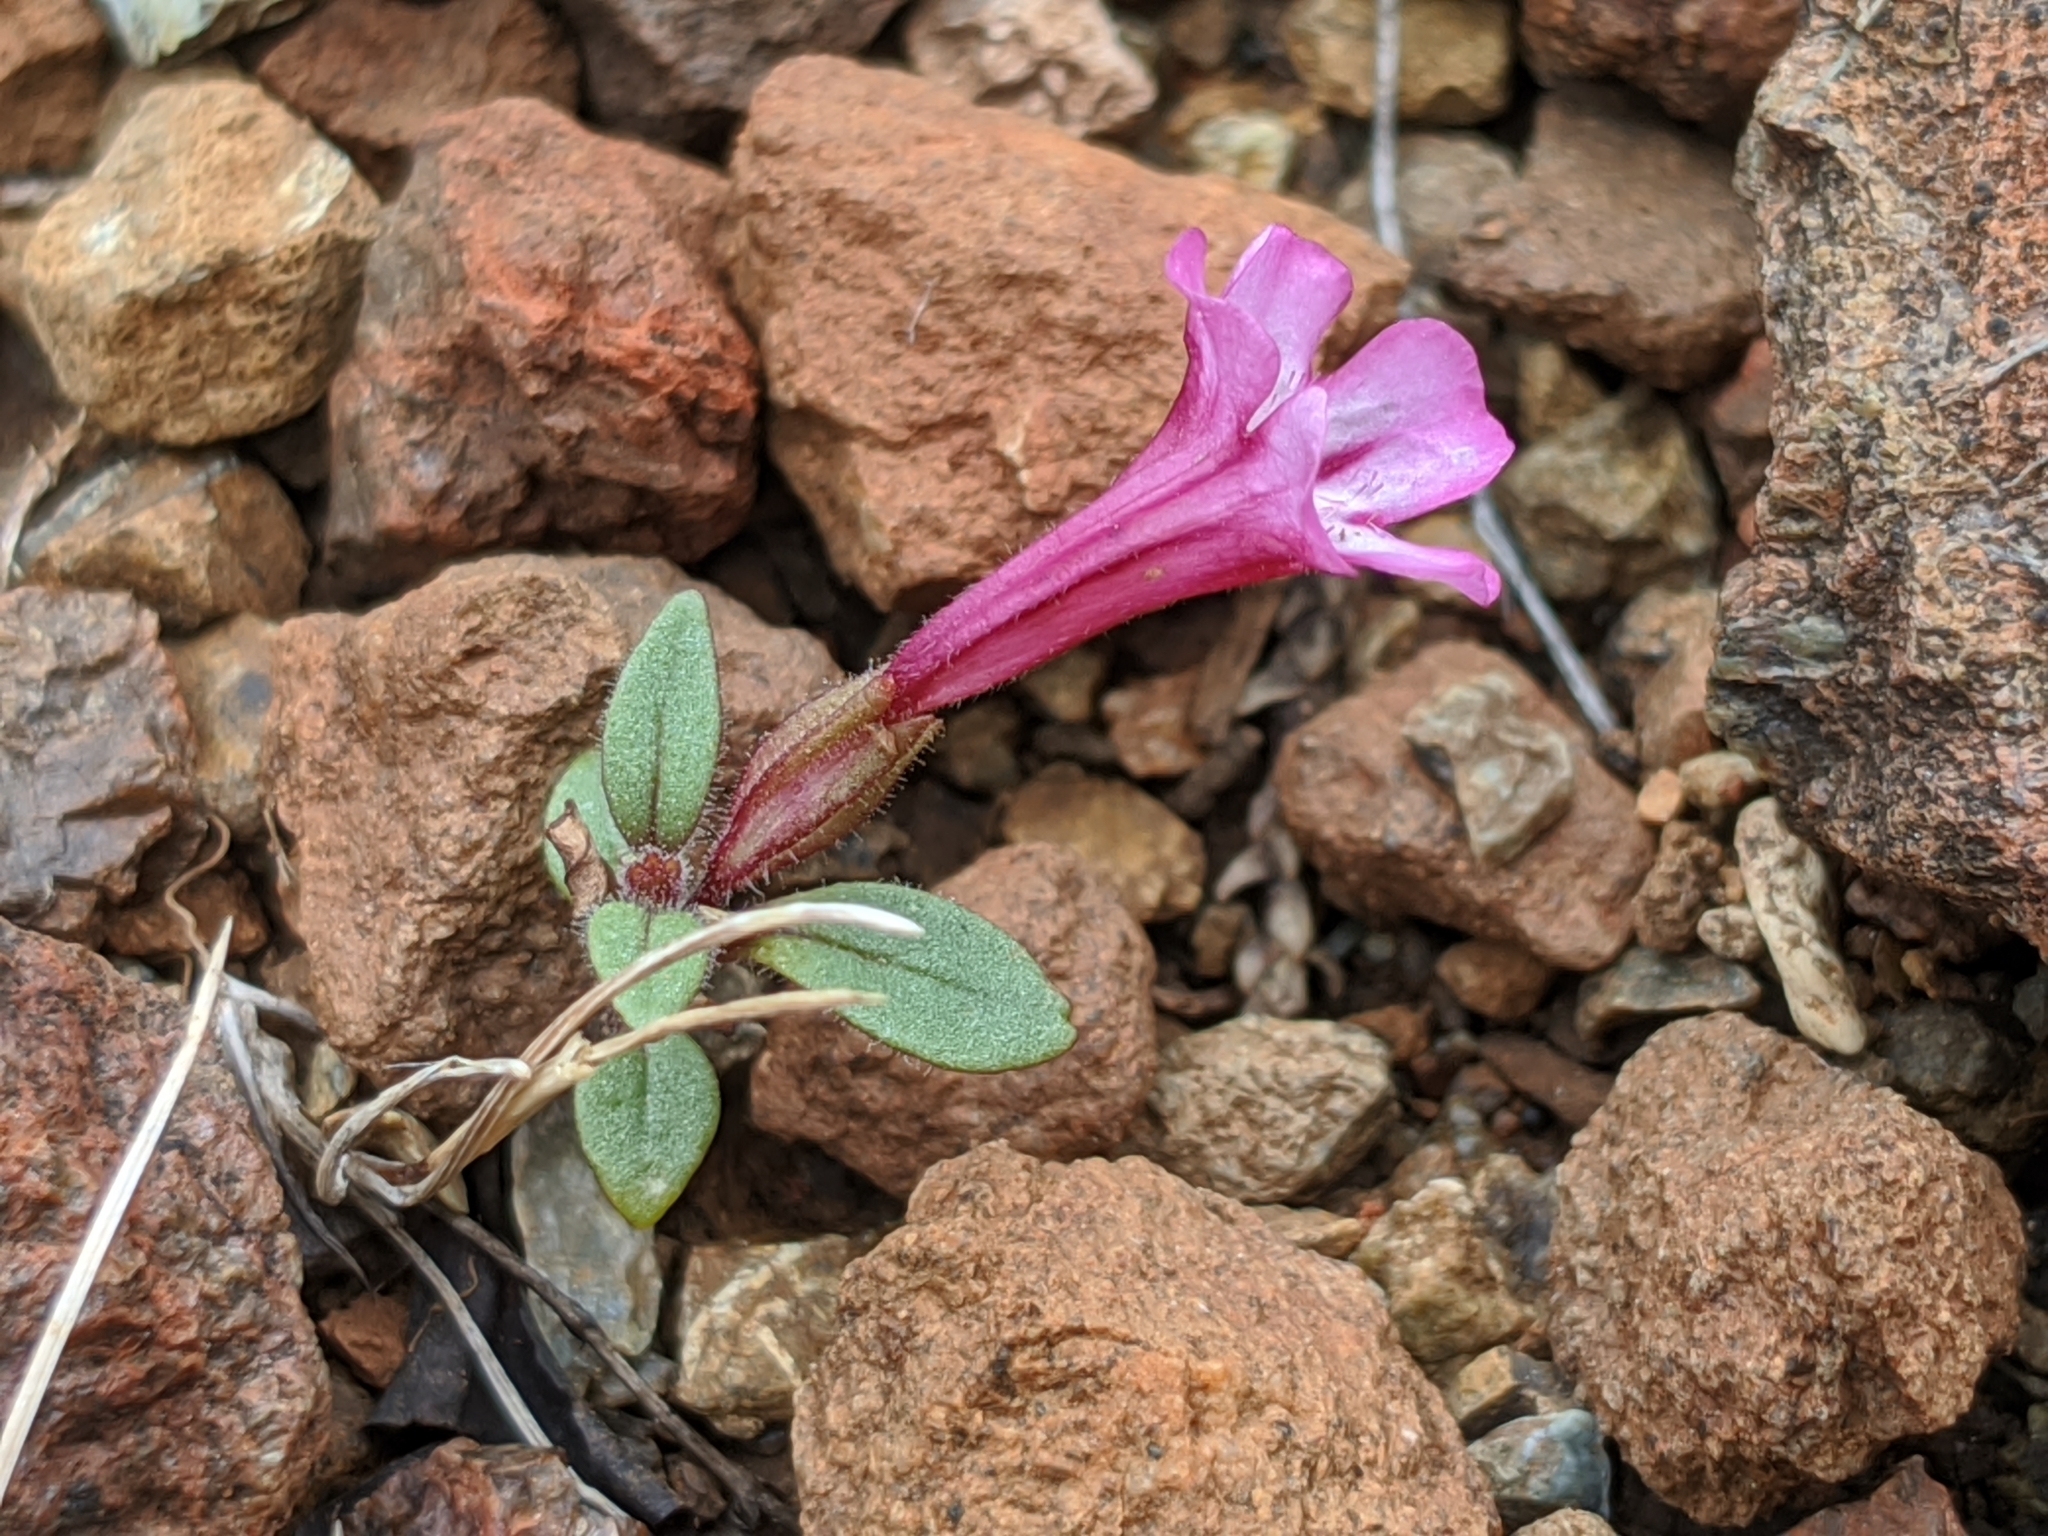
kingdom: Plantae
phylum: Tracheophyta
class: Magnoliopsida
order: Lamiales
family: Phrymaceae
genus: Diplacus
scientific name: Diplacus layneae
